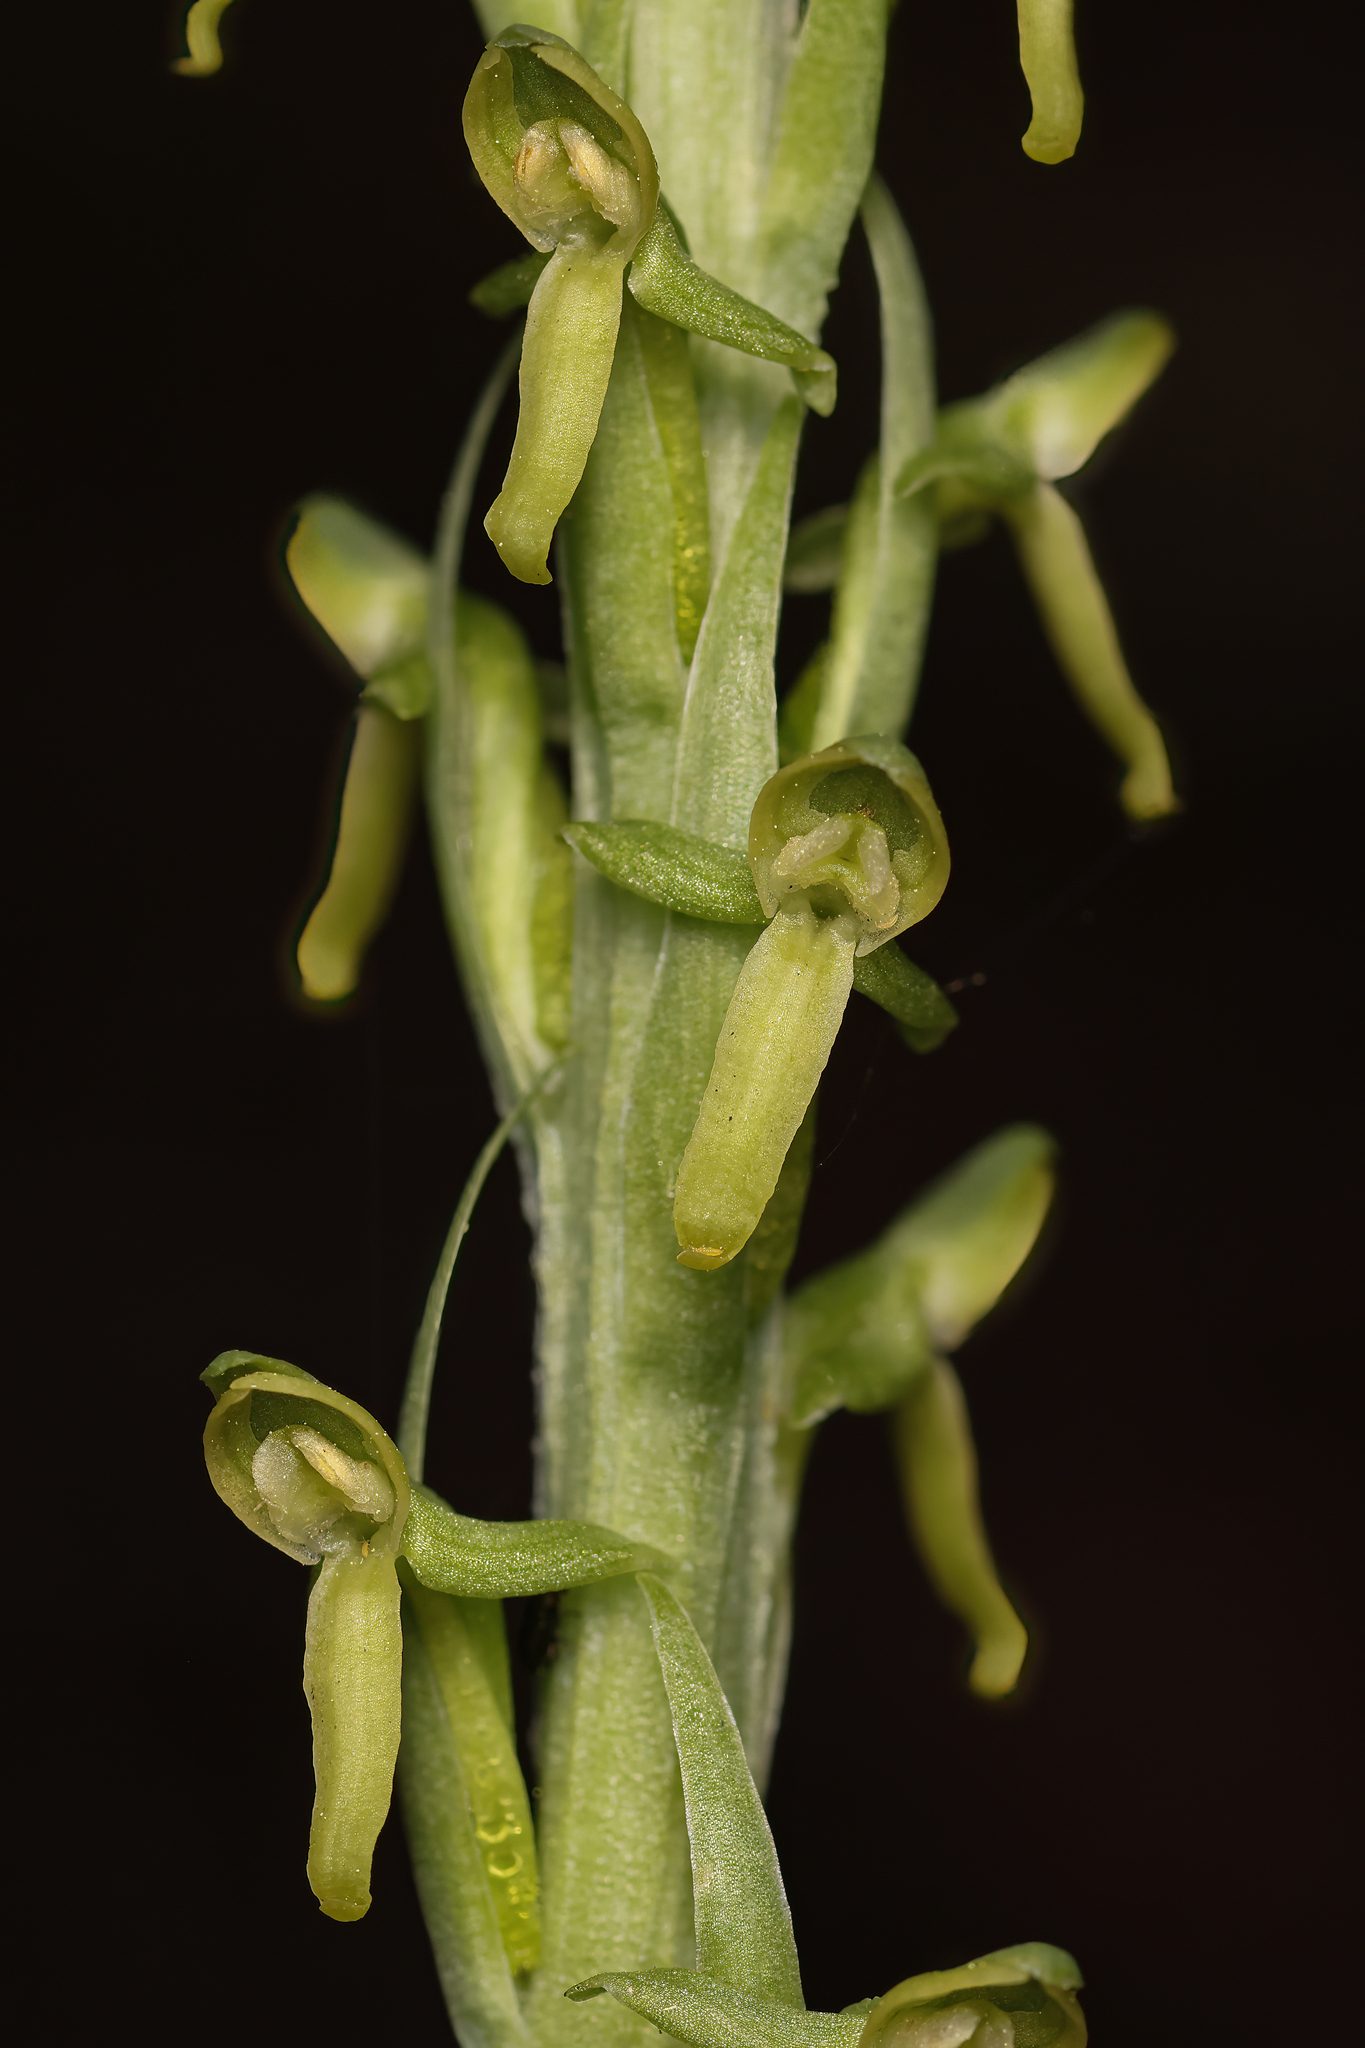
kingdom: Plantae
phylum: Tracheophyta
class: Liliopsida
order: Asparagales
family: Orchidaceae
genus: Platanthera
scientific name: Platanthera tescamnis
